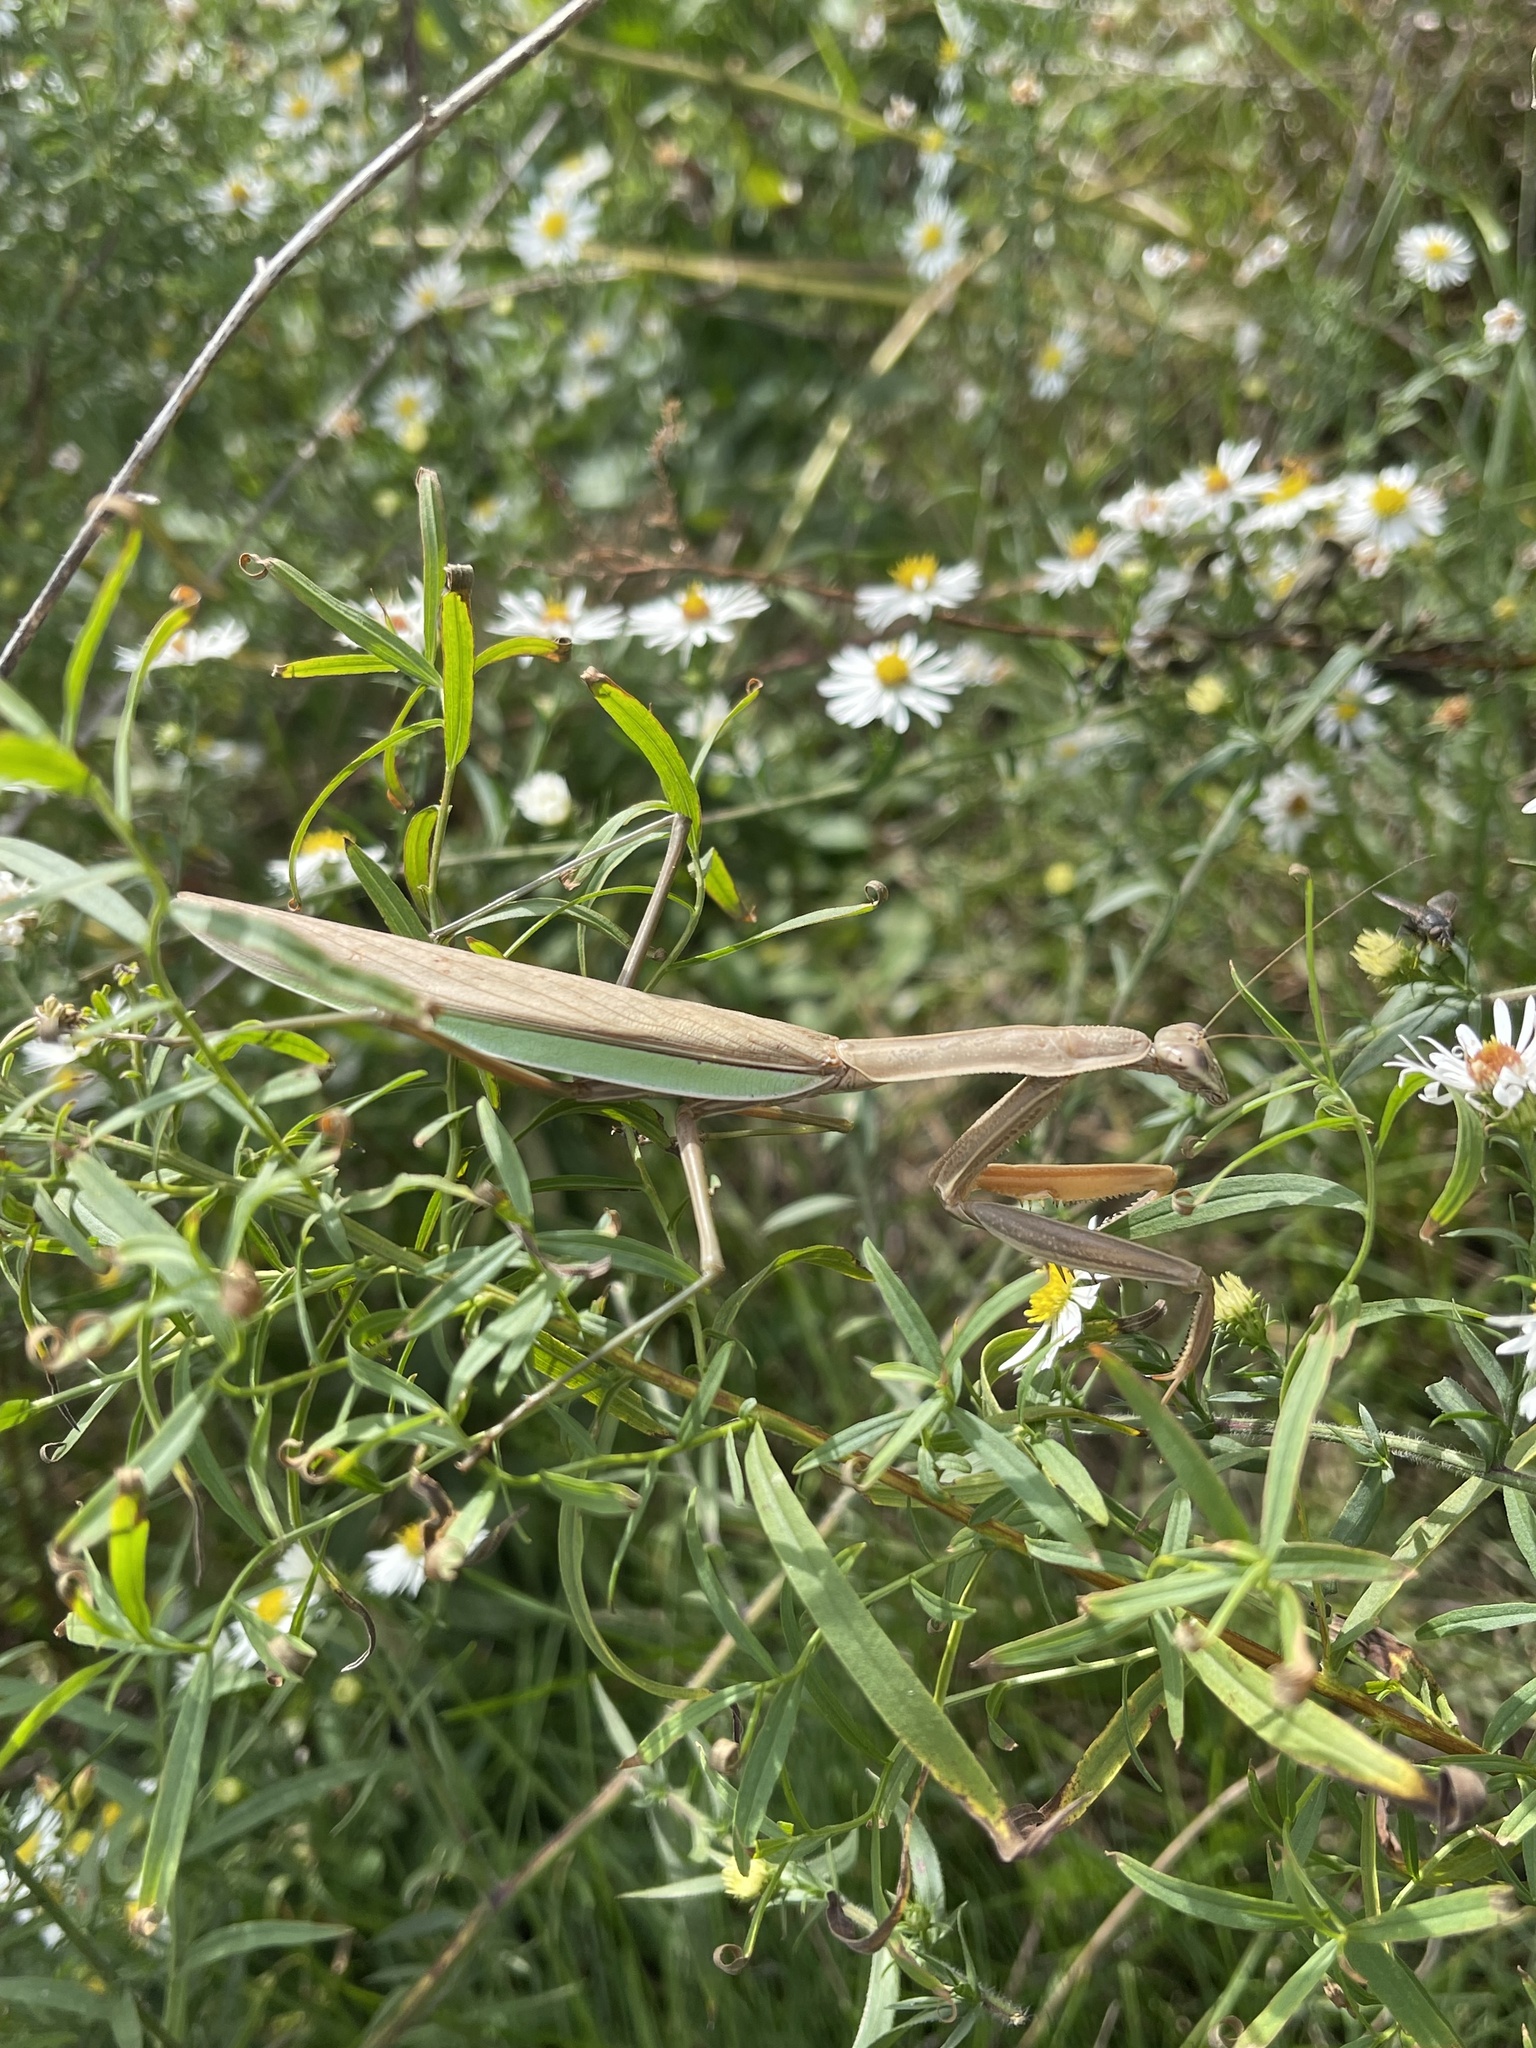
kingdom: Animalia
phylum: Arthropoda
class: Insecta
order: Mantodea
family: Mantidae
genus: Tenodera
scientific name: Tenodera sinensis
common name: Chinese mantis
